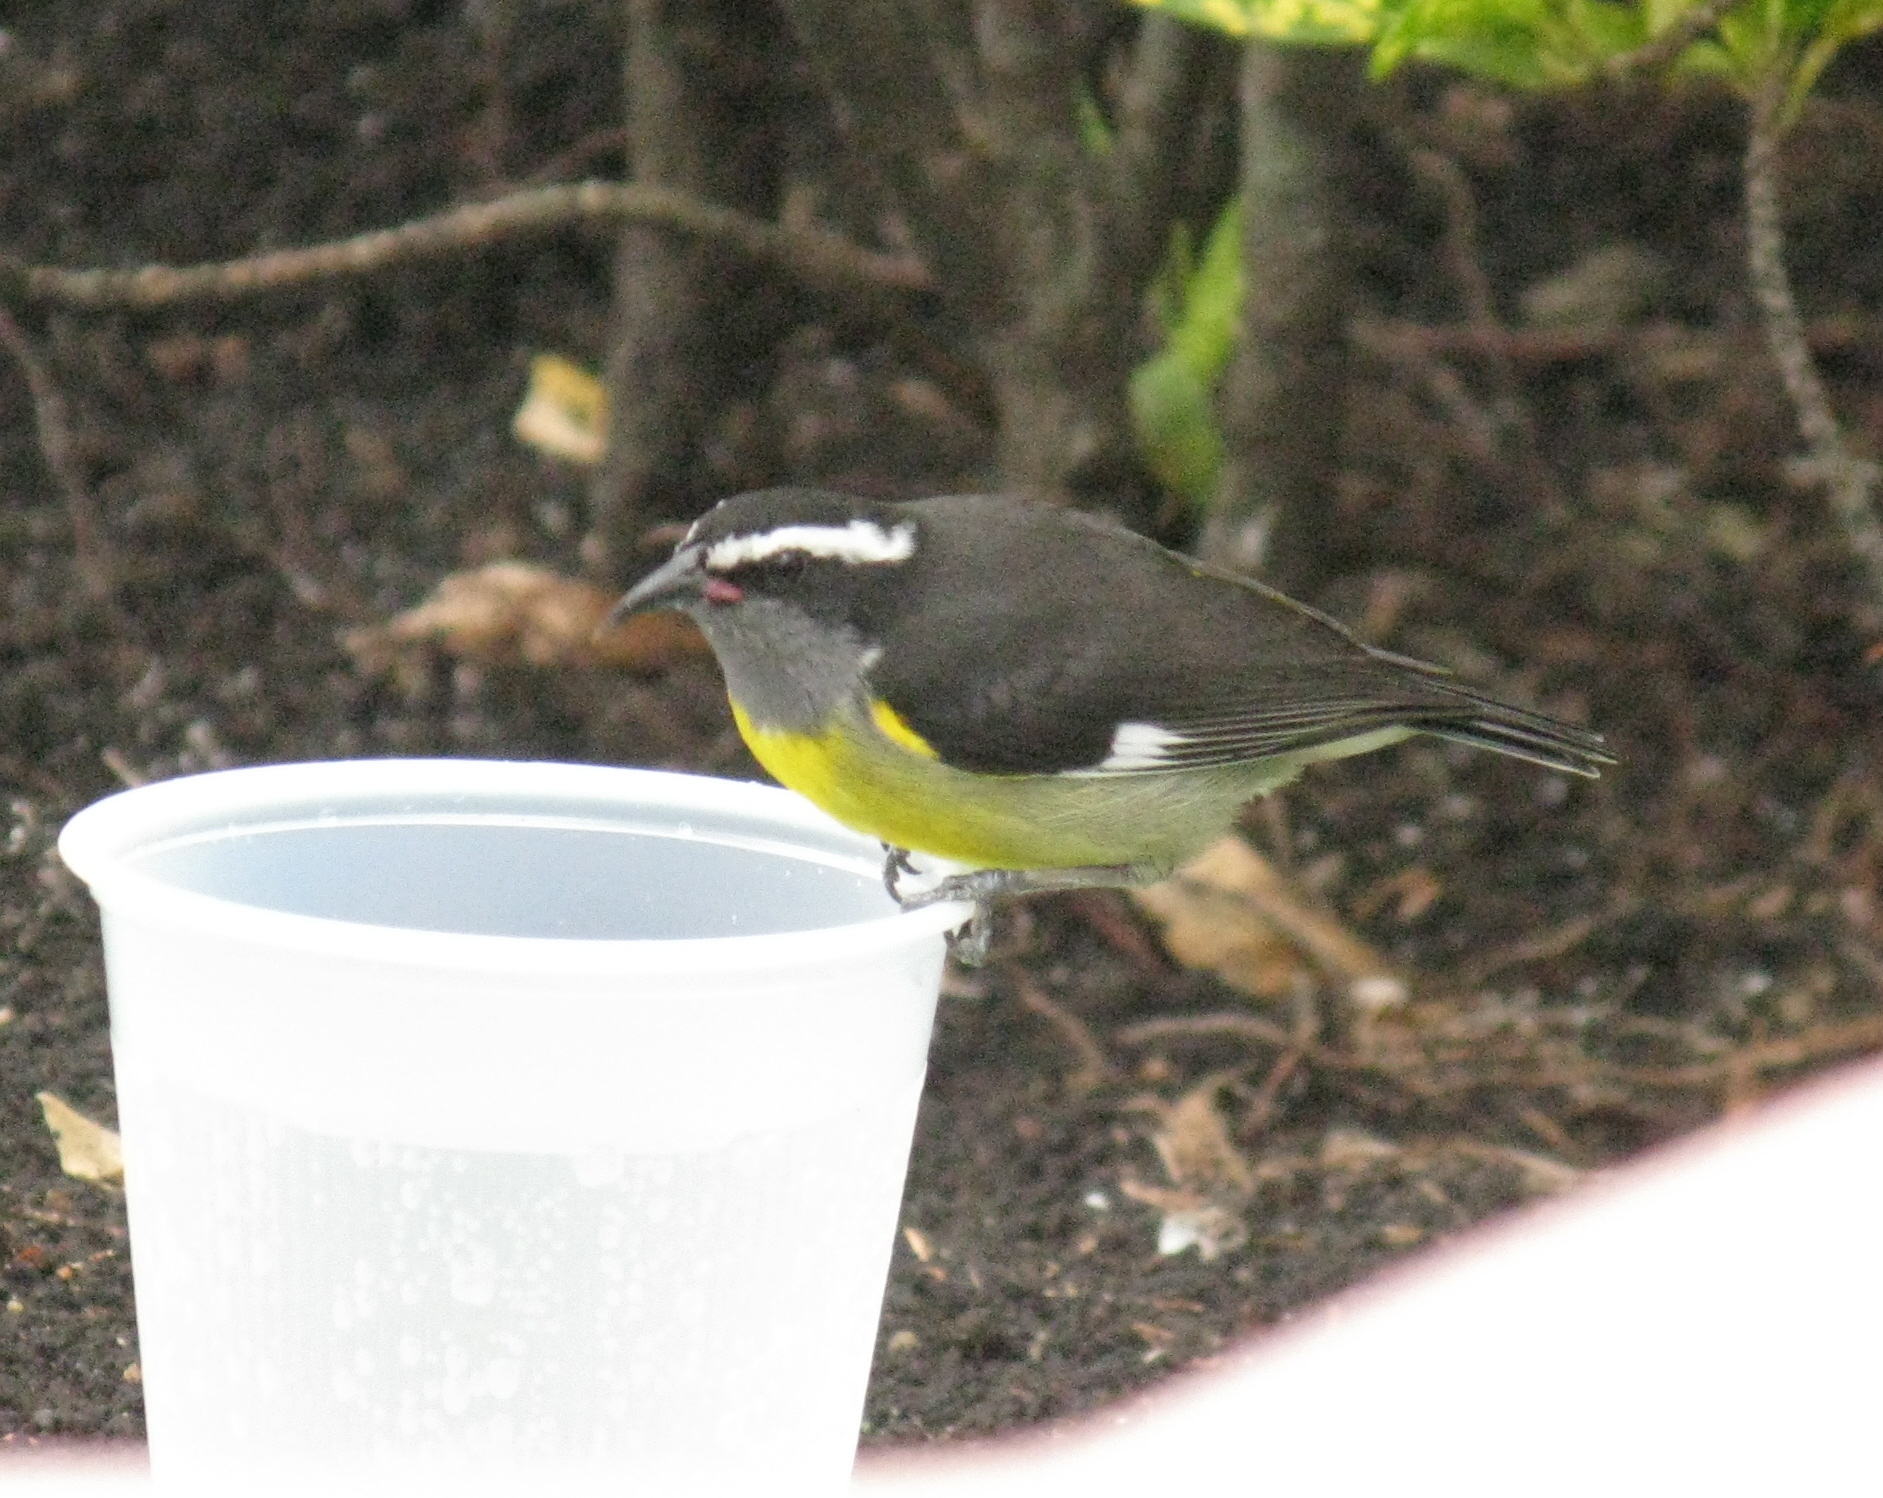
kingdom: Animalia
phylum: Chordata
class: Aves
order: Passeriformes
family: Thraupidae
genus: Coereba
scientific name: Coereba flaveola
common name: Bananaquit
